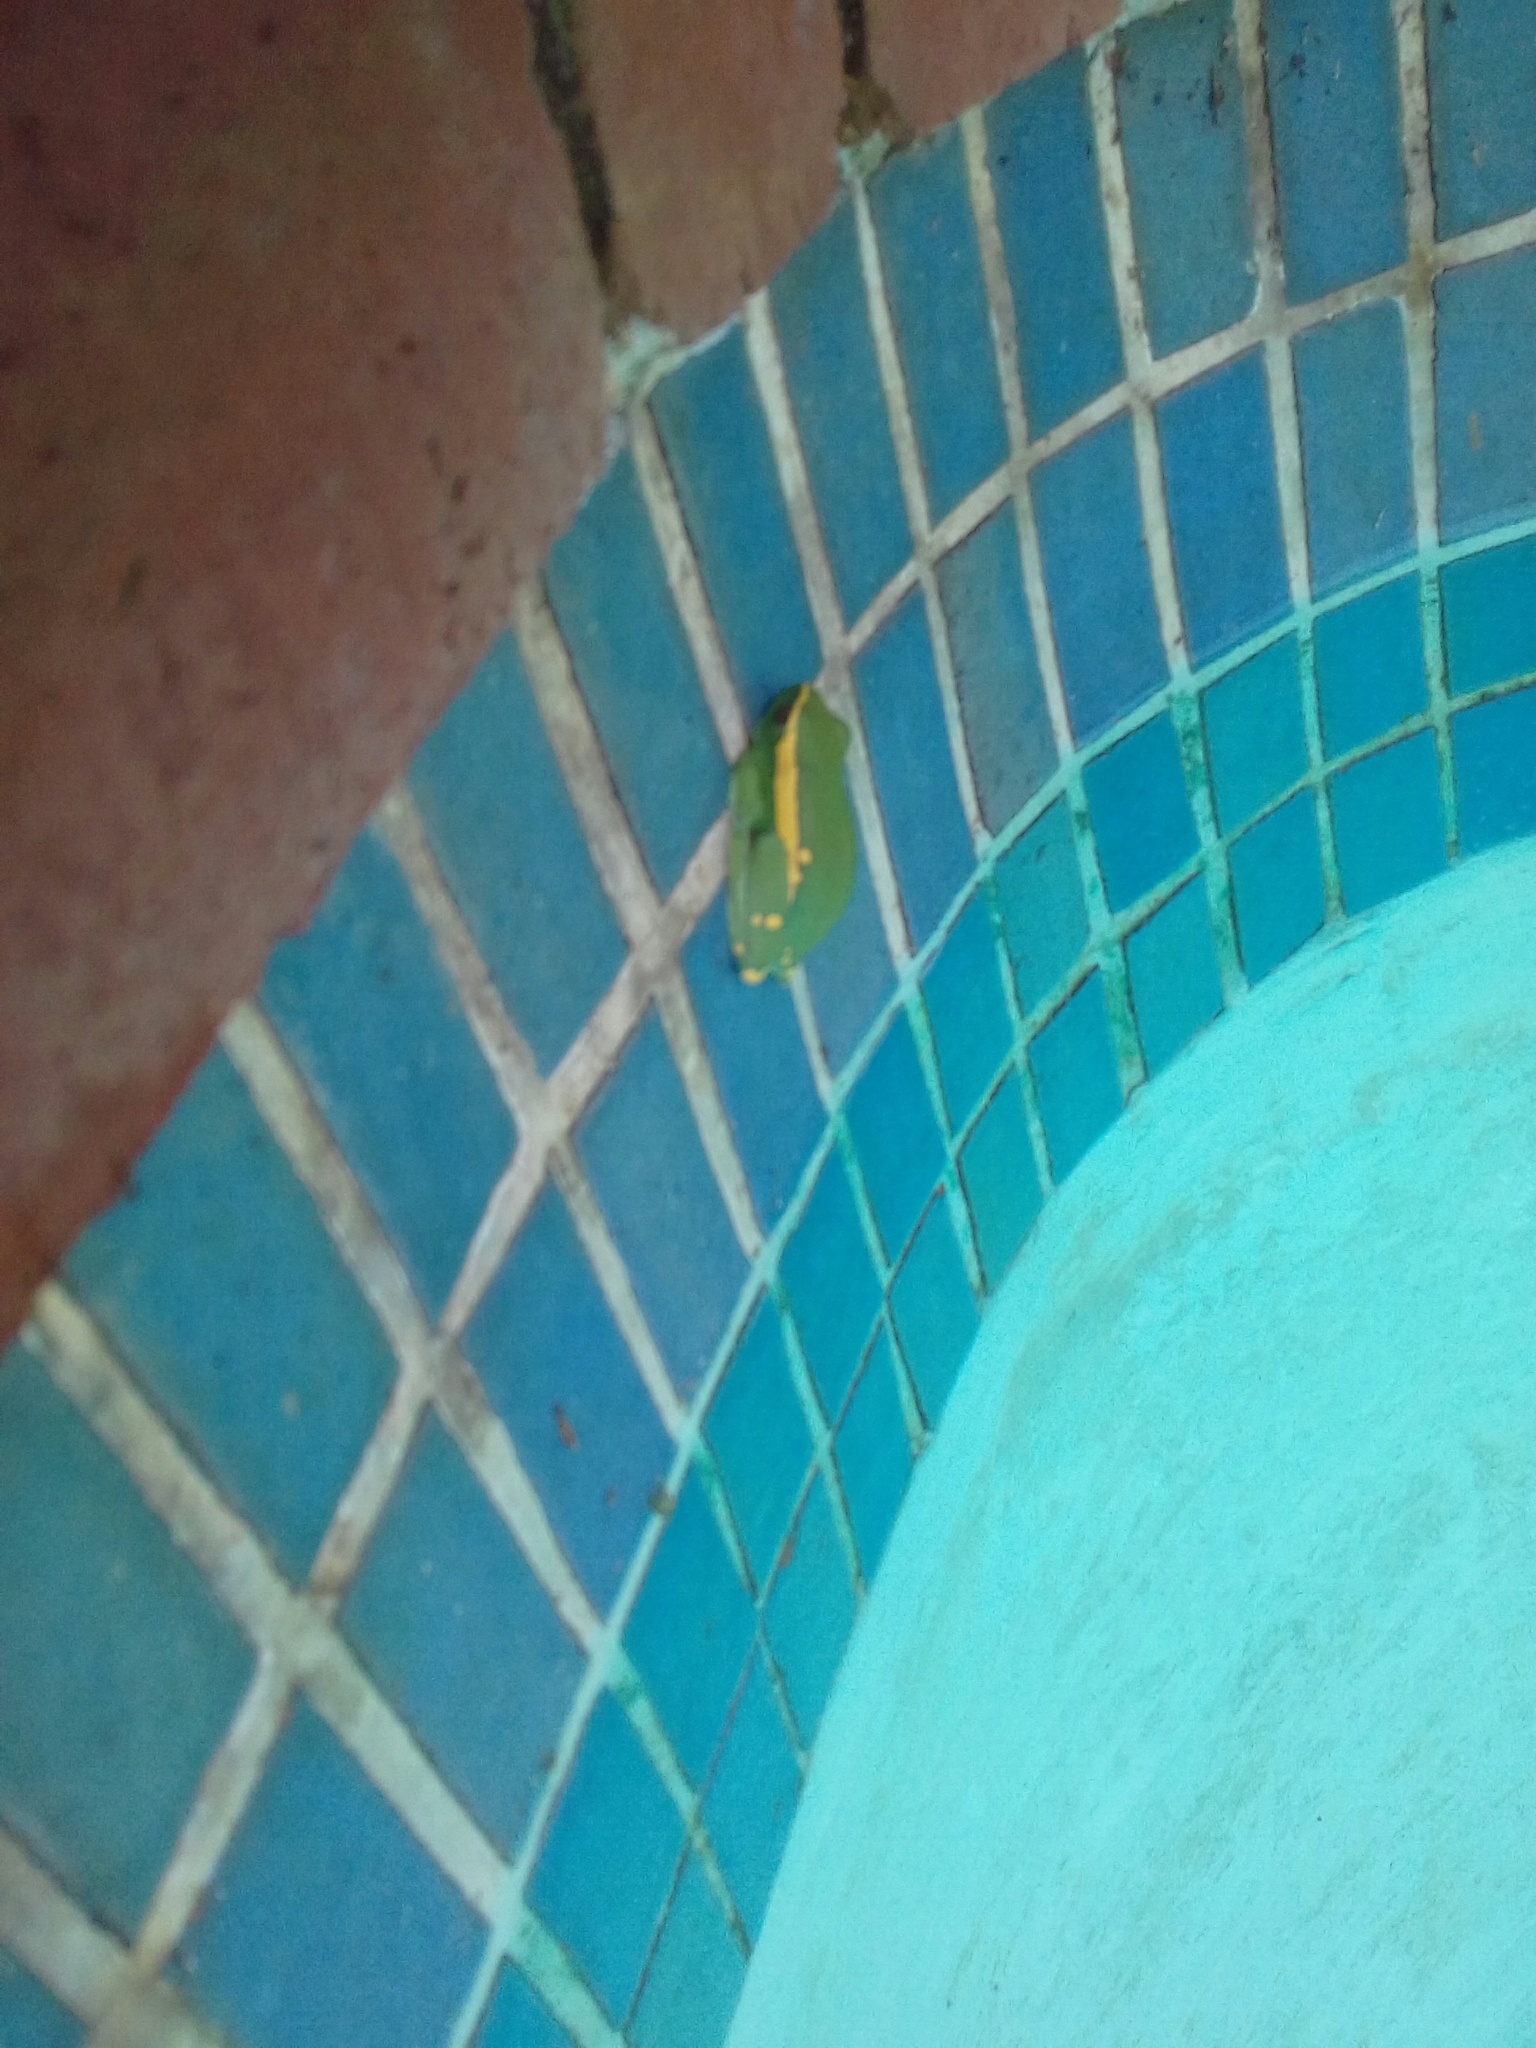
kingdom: Animalia
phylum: Chordata
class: Amphibia
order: Anura
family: Hyperoliidae
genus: Hyperolius
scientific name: Hyperolius semidiscus
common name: Yellow-striped reed frog
